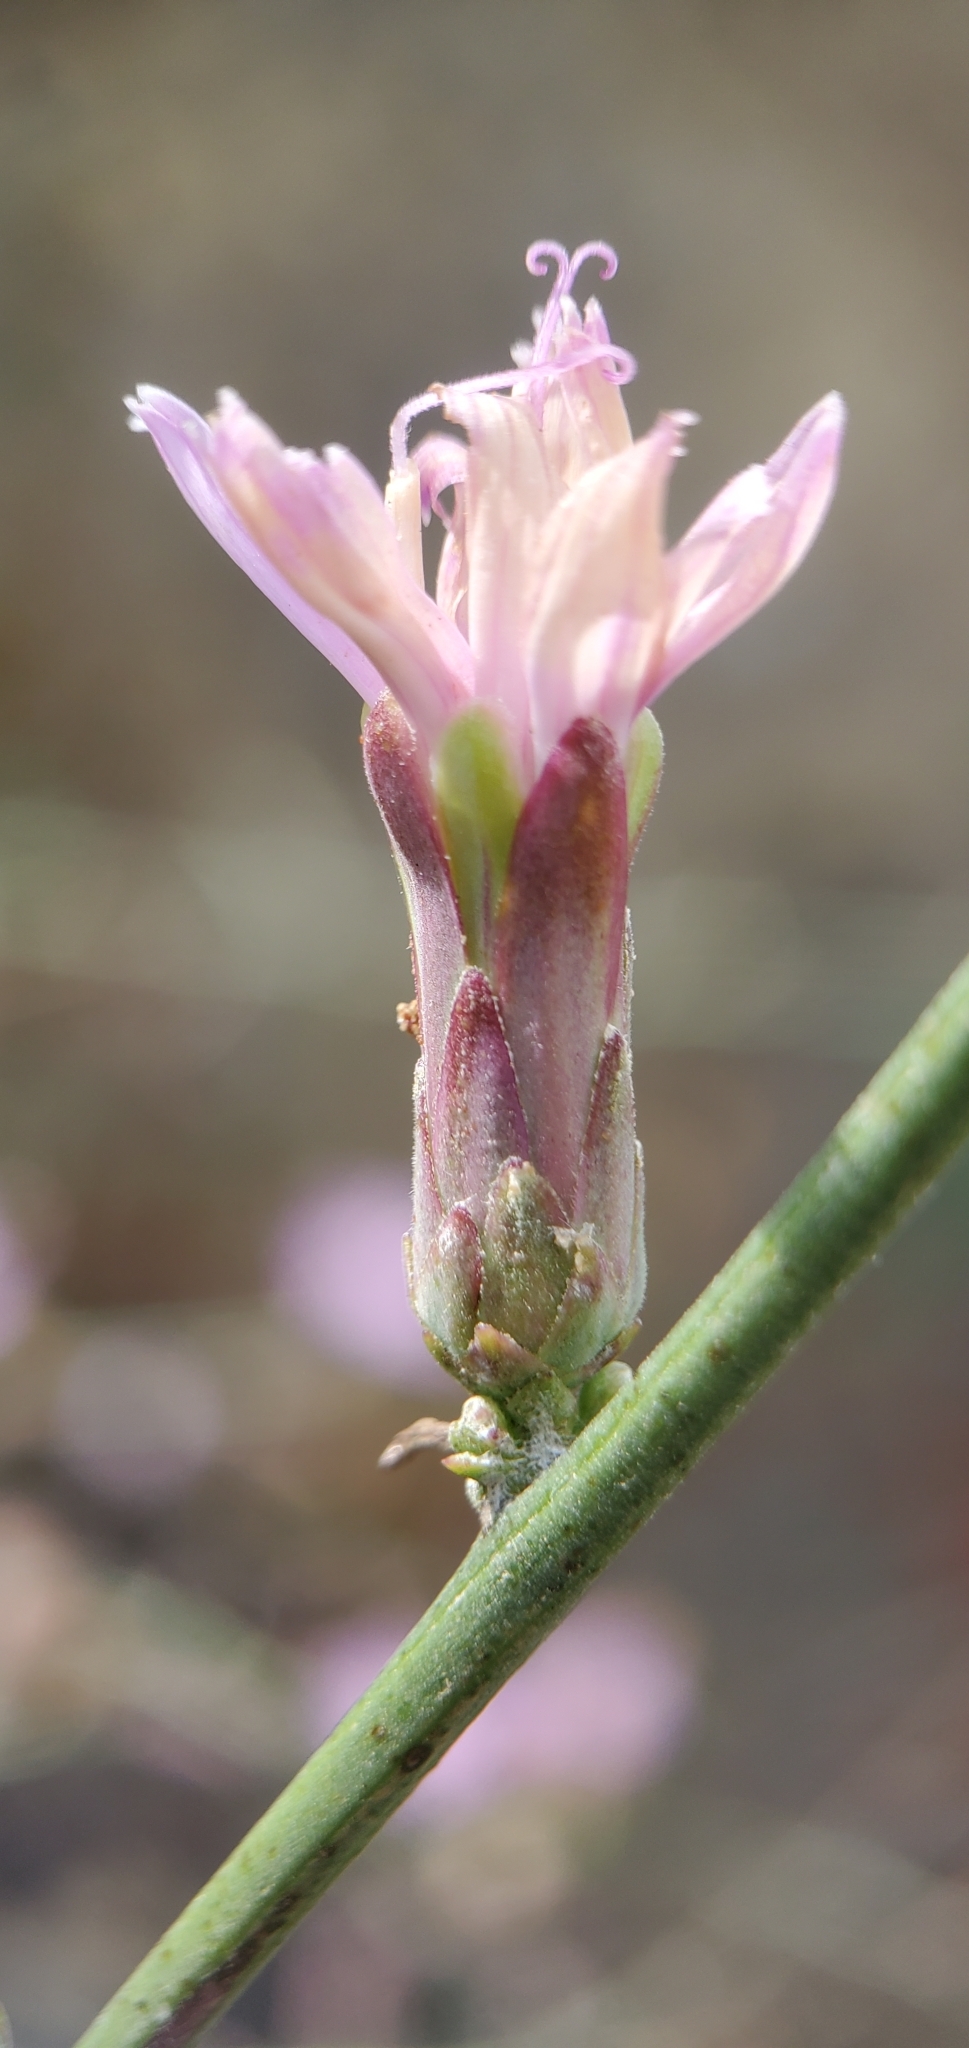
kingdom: Plantae
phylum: Tracheophyta
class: Magnoliopsida
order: Asterales
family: Asteraceae
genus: Stephanomeria
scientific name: Stephanomeria cichoriacea
